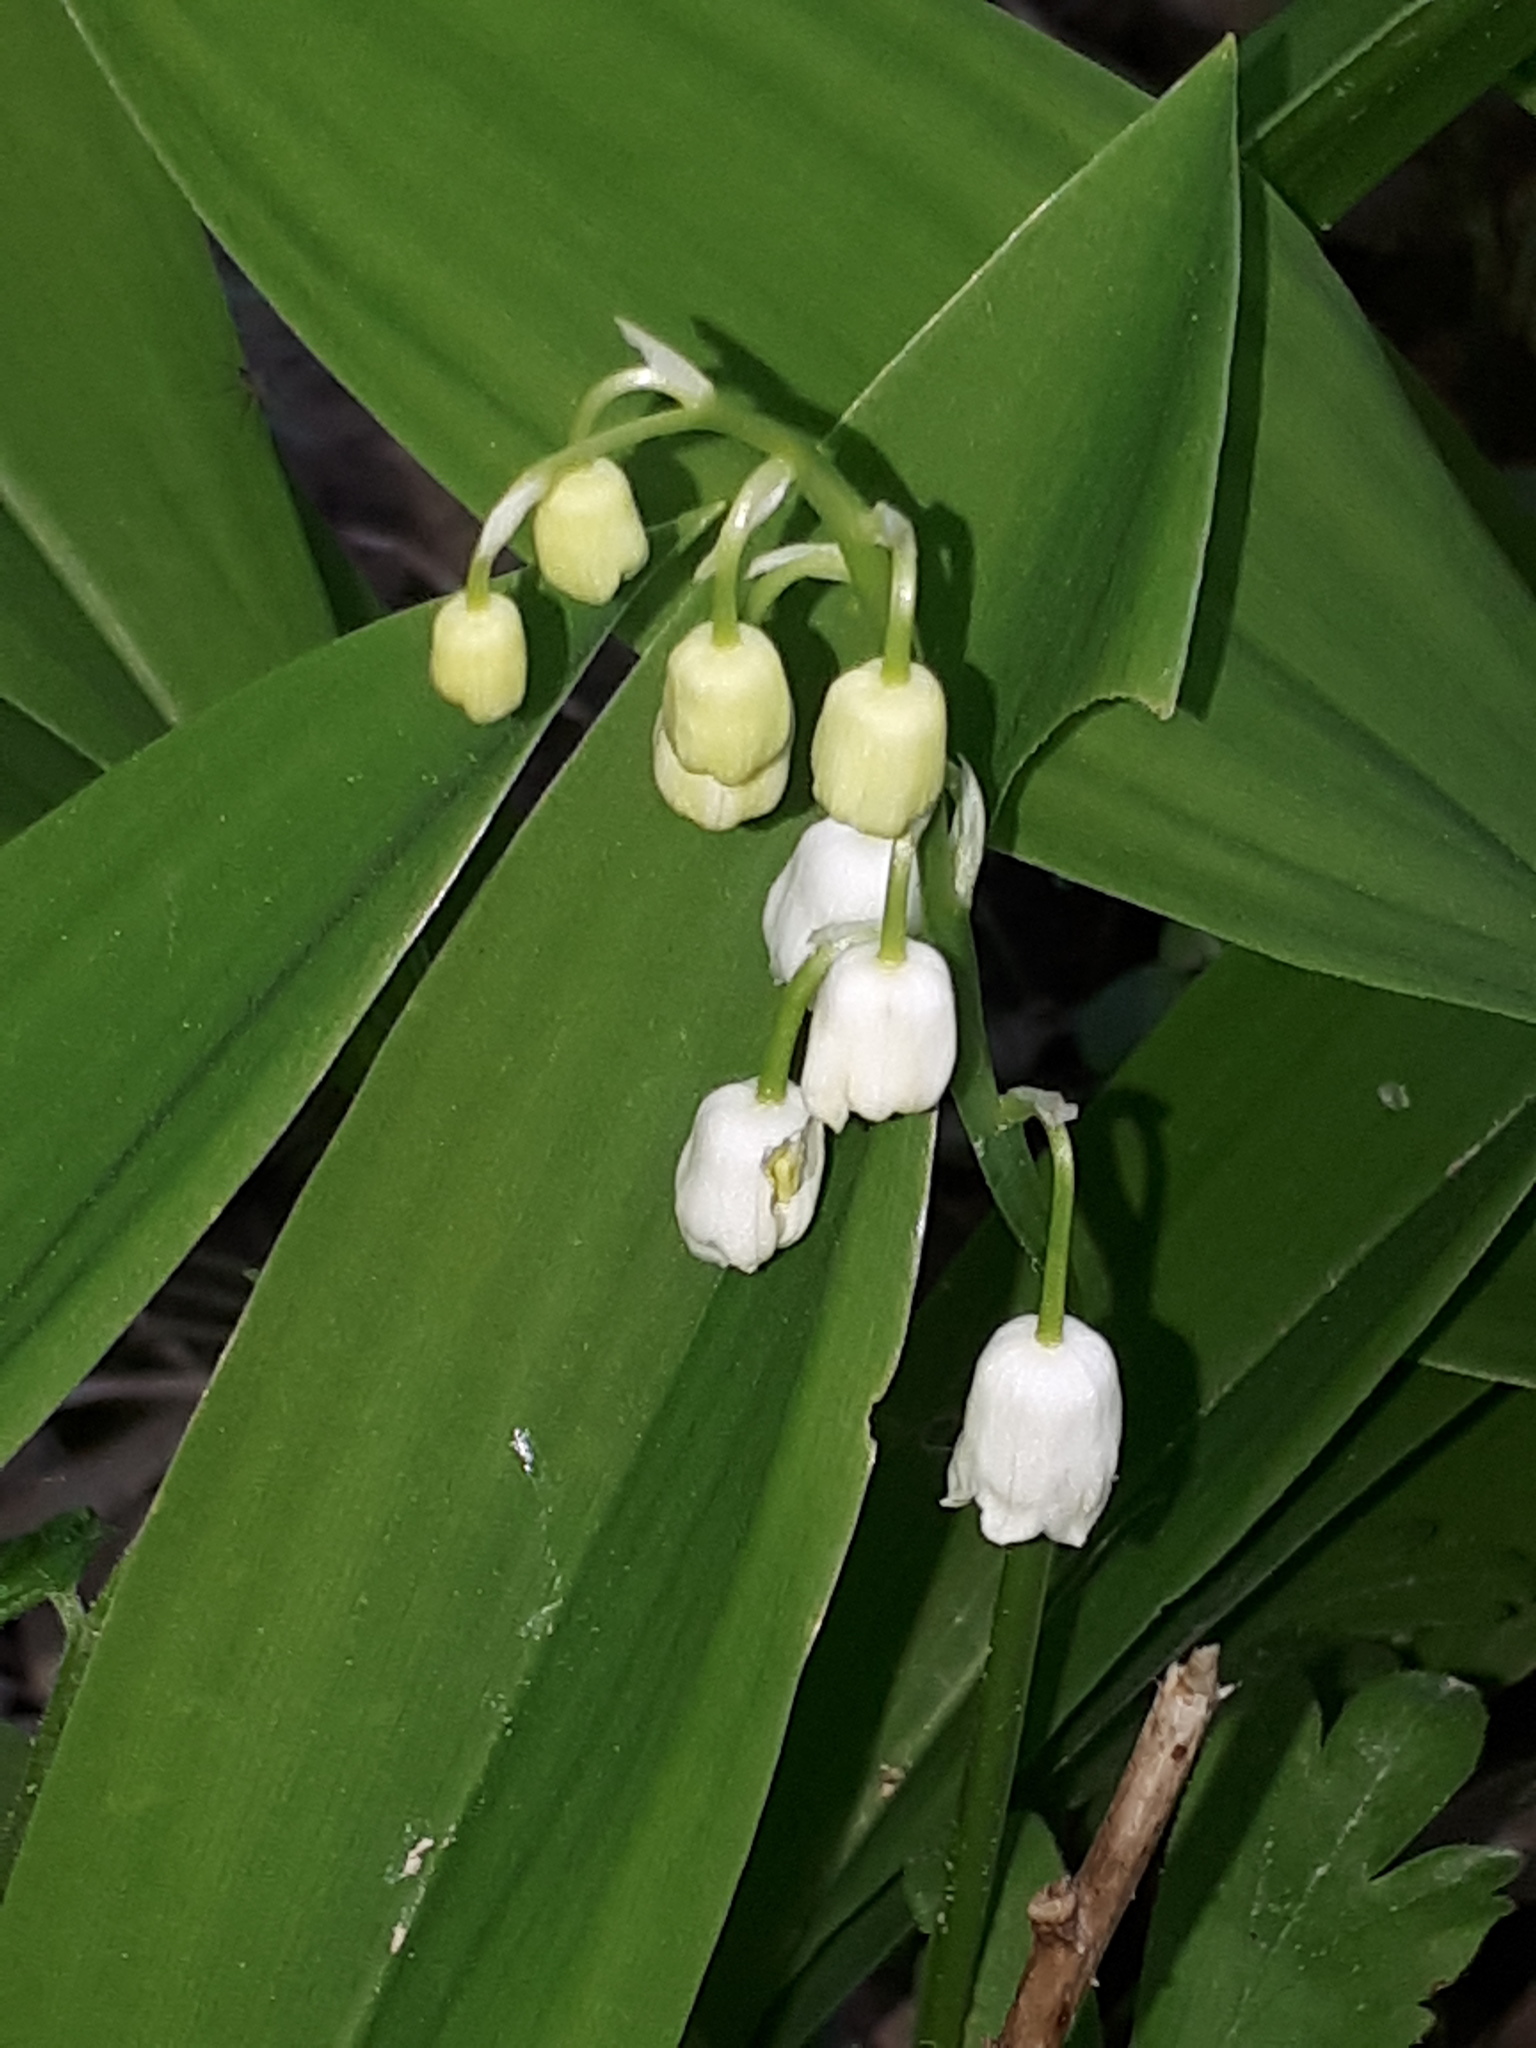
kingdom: Plantae
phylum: Tracheophyta
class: Liliopsida
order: Asparagales
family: Asparagaceae
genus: Convallaria
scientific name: Convallaria majalis
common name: Lily-of-the-valley
